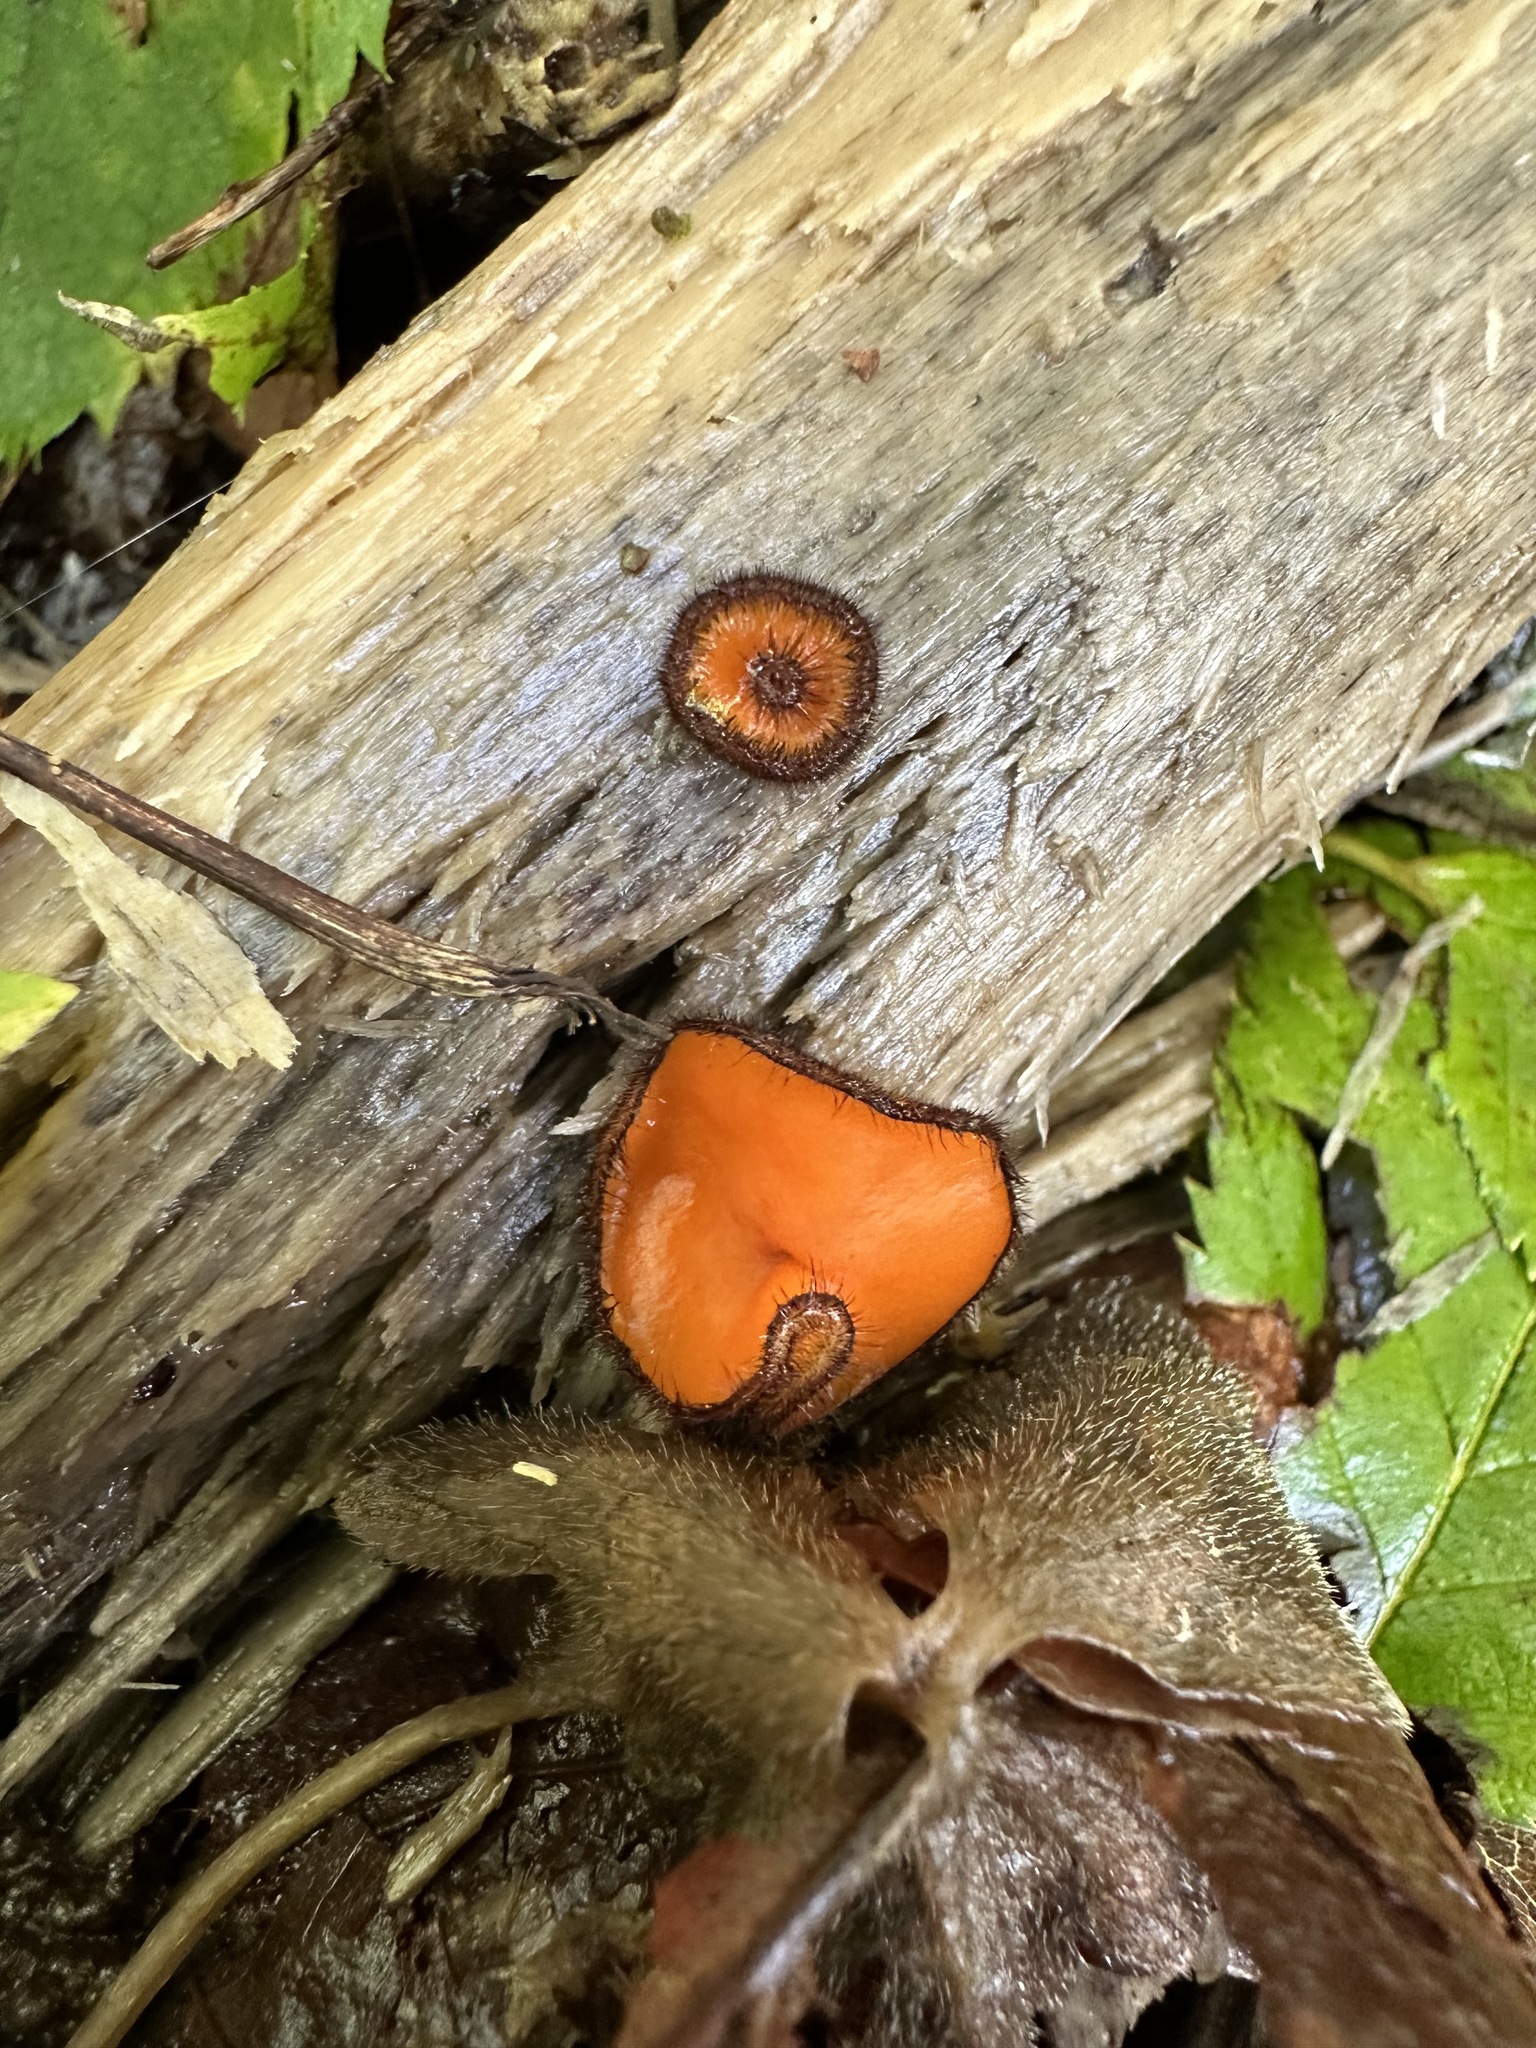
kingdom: Fungi
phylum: Ascomycota
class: Pezizomycetes
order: Pezizales
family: Pyronemataceae
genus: Scutellinia
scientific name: Scutellinia scutellata
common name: Common eyelash
